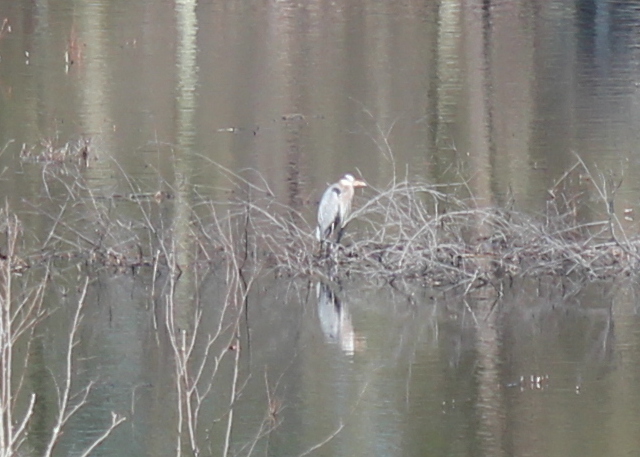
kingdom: Animalia
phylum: Chordata
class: Aves
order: Pelecaniformes
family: Ardeidae
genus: Ardea
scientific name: Ardea herodias
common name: Great blue heron
